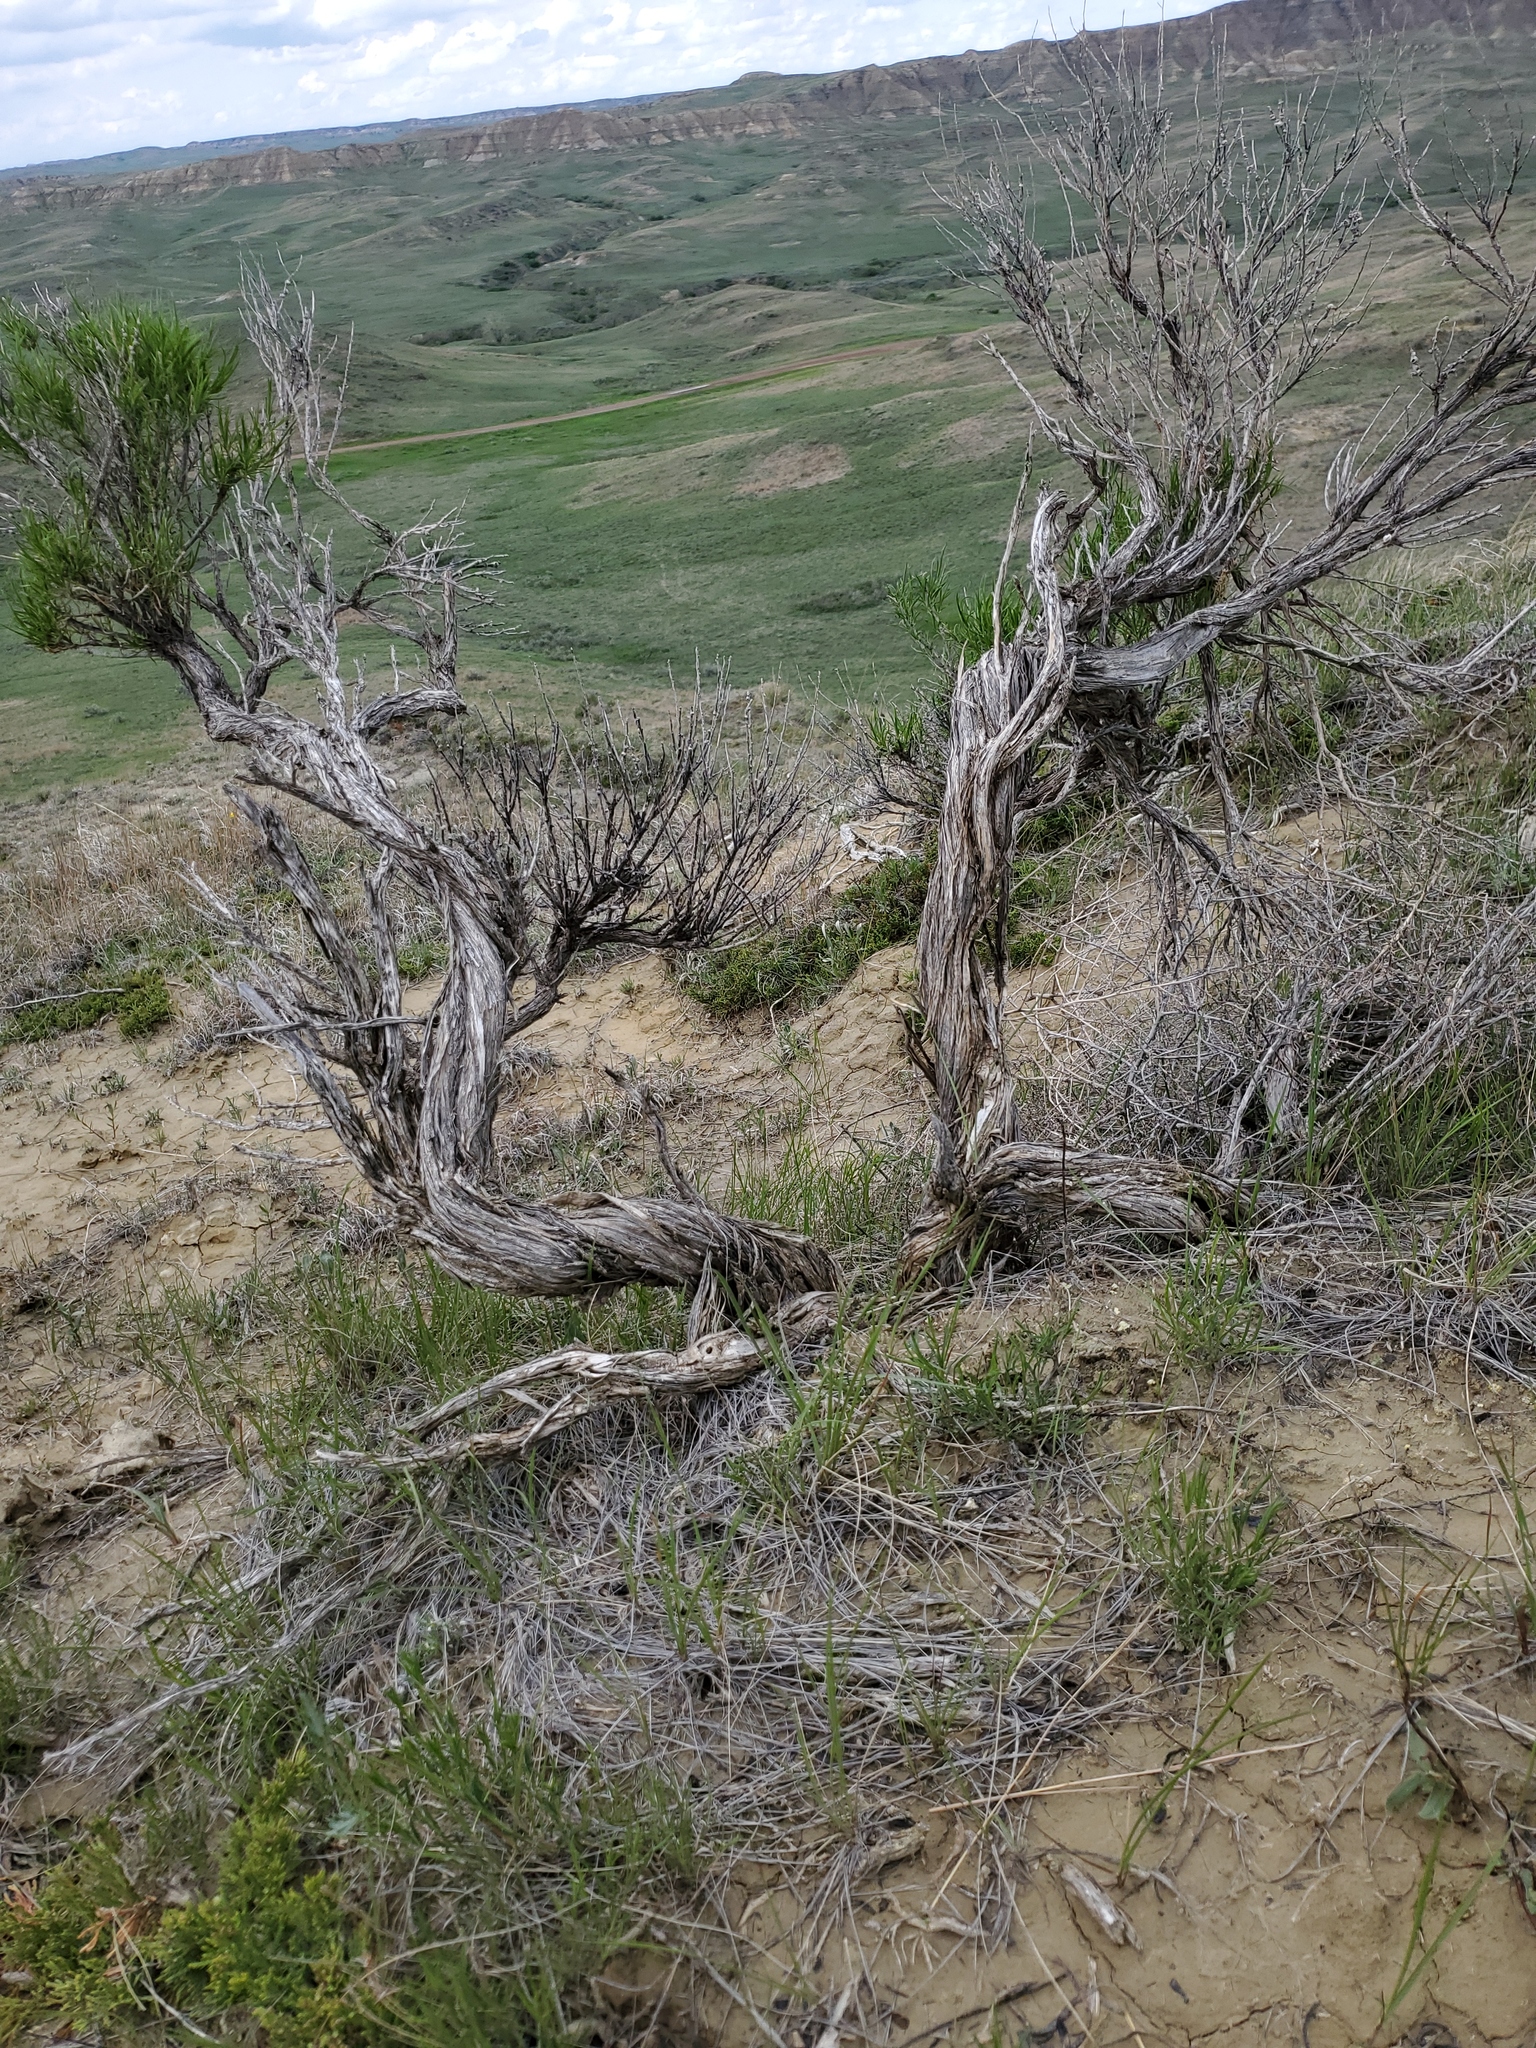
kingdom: Plantae
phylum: Tracheophyta
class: Magnoliopsida
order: Asterales
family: Asteraceae
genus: Ericameria
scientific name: Ericameria nauseosa
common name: Rubber rabbitbrush
